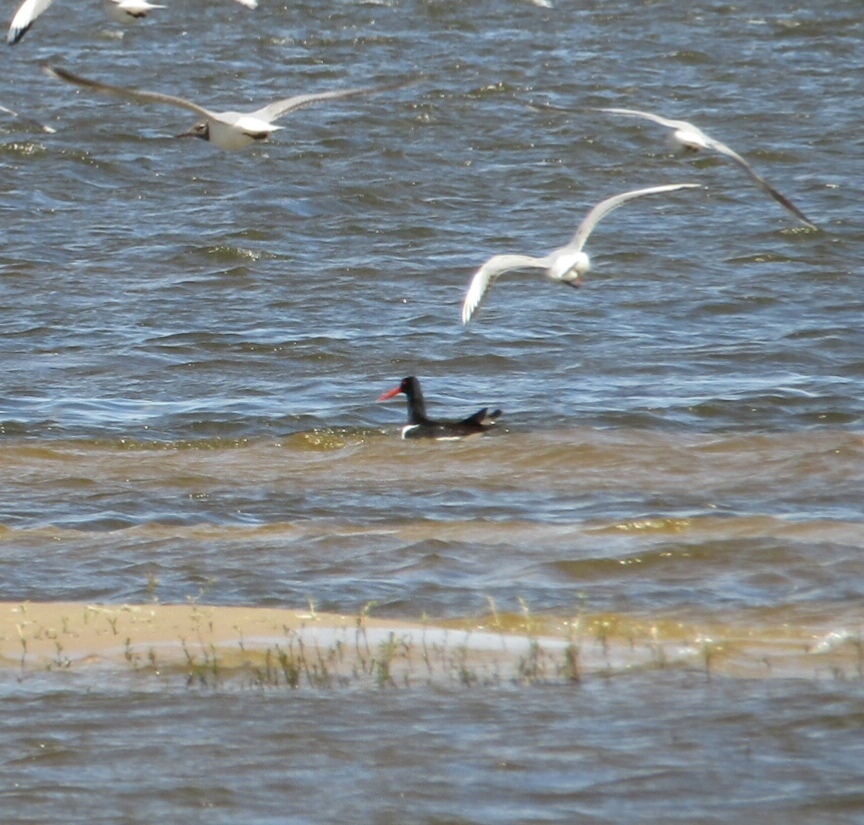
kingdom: Animalia
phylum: Chordata
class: Aves
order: Charadriiformes
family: Haematopodidae
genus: Haematopus
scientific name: Haematopus ostralegus
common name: Eurasian oystercatcher
